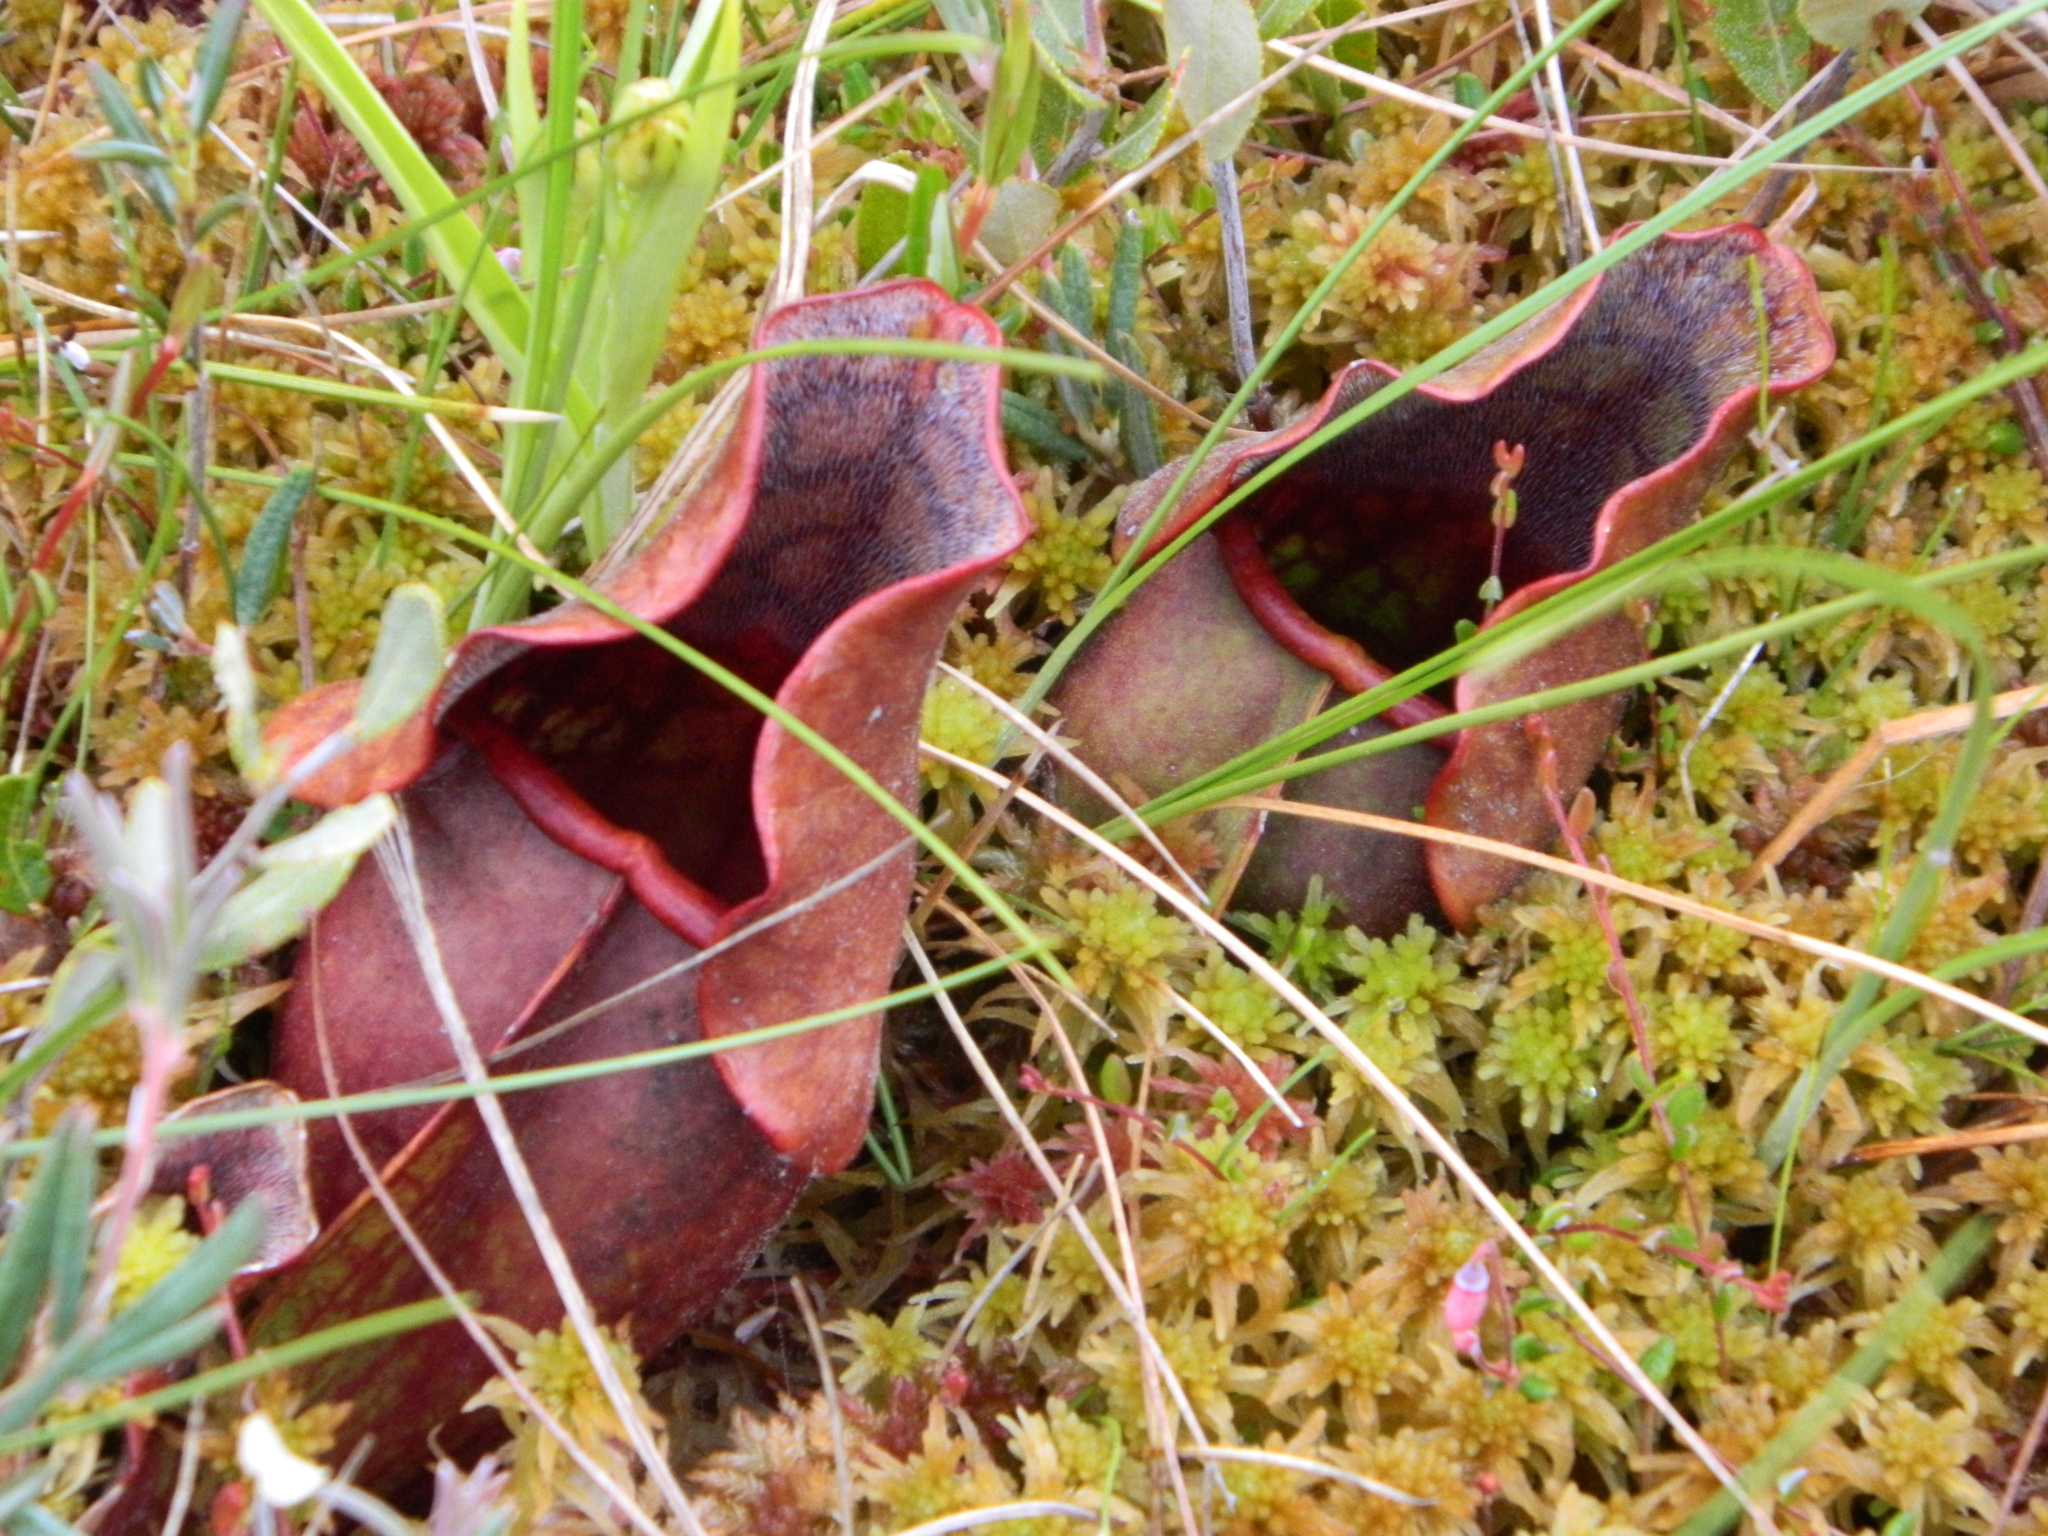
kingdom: Plantae
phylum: Tracheophyta
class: Magnoliopsida
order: Ericales
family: Sarraceniaceae
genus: Sarracenia
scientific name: Sarracenia purpurea
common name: Pitcherplant
